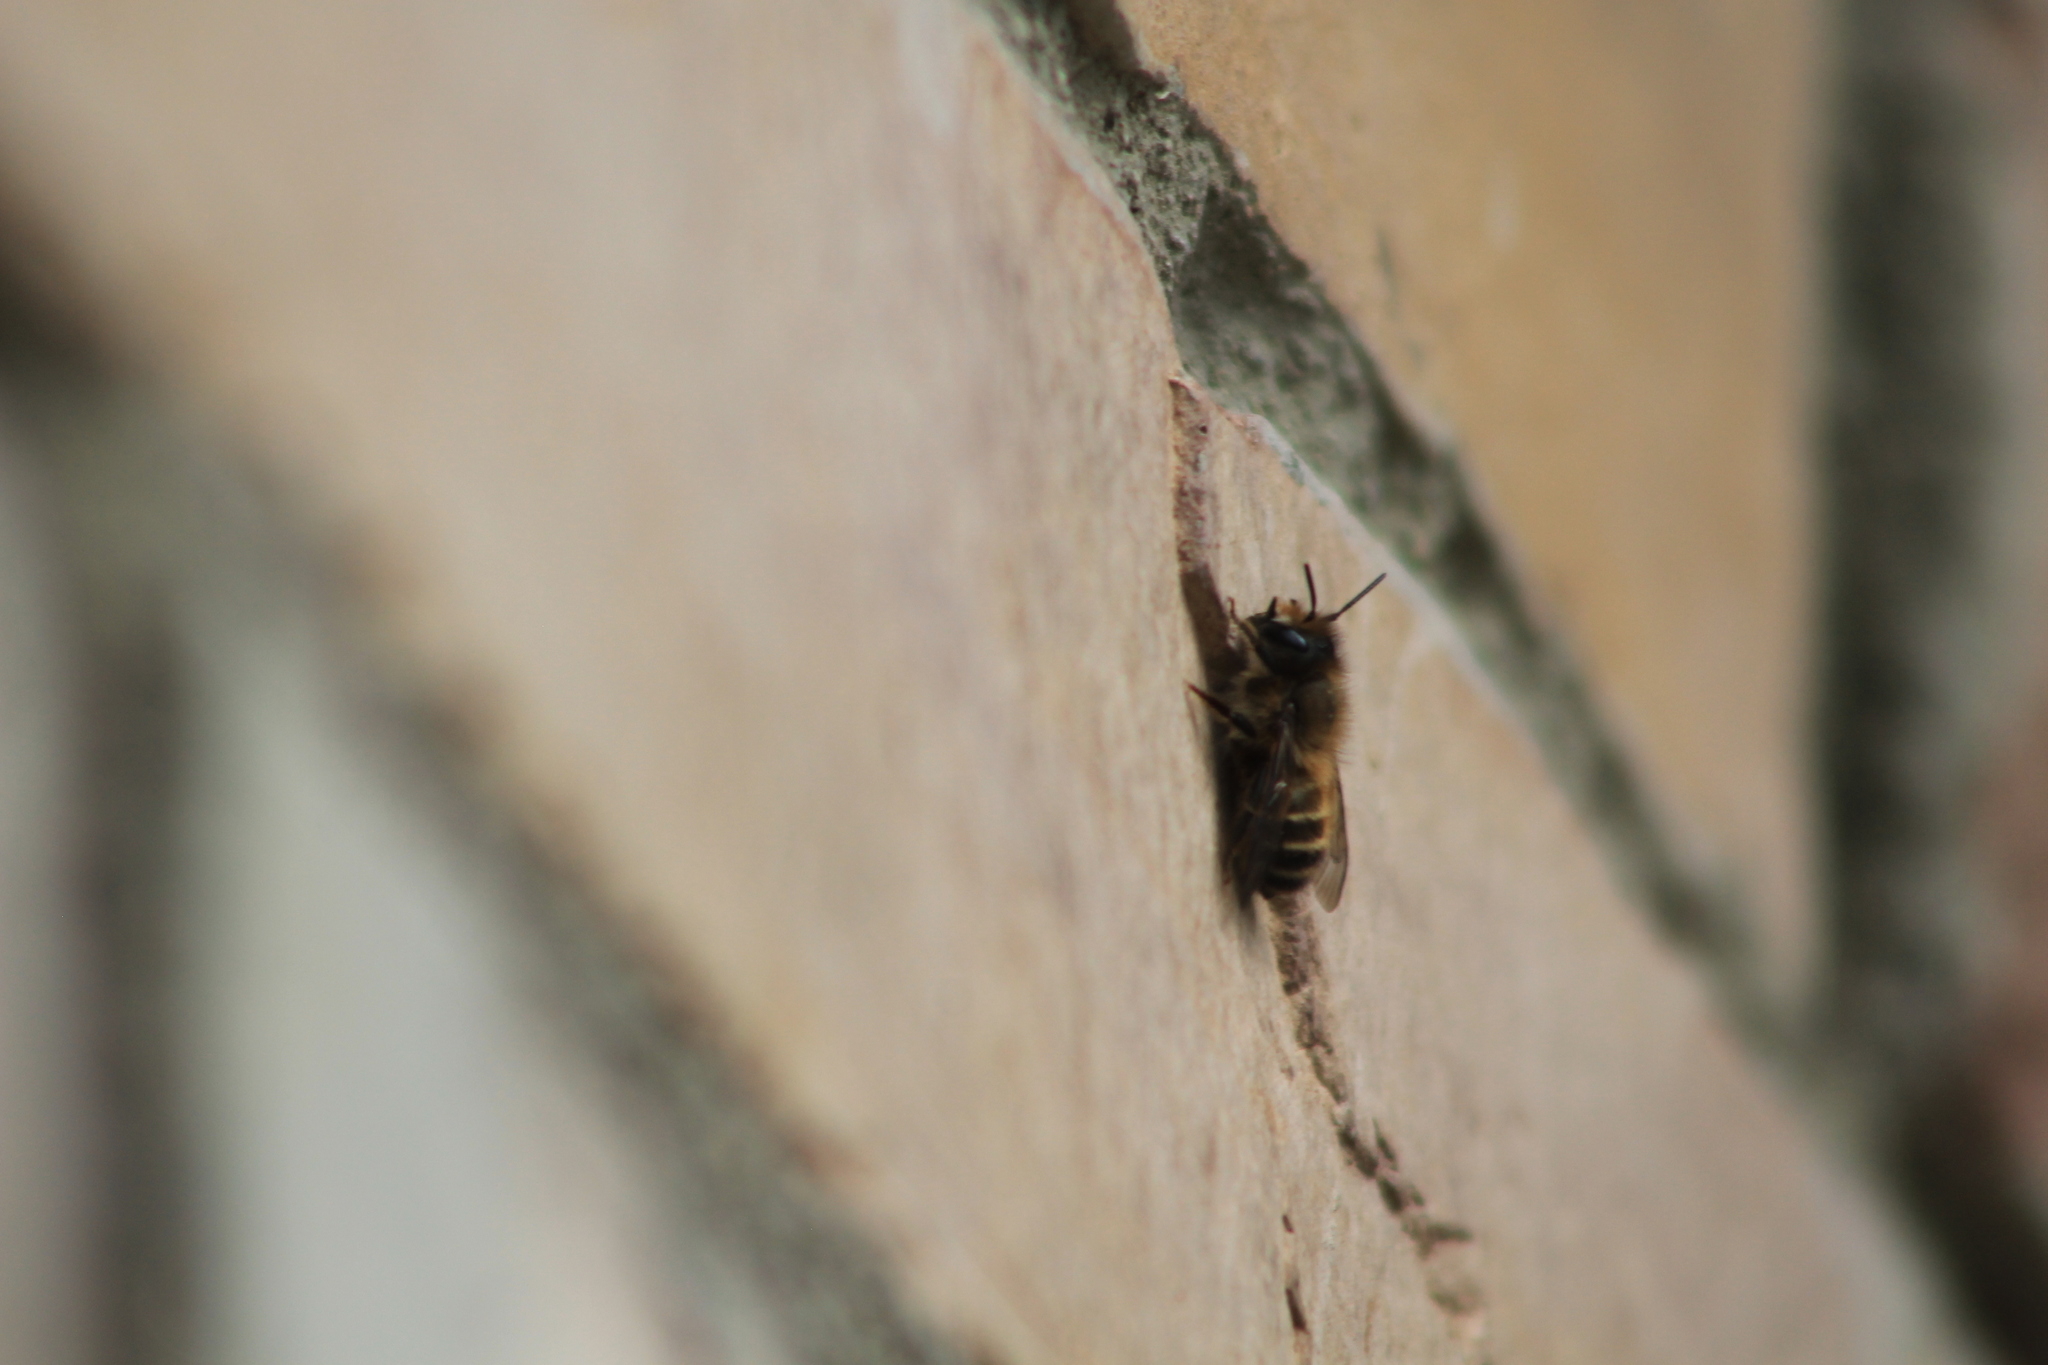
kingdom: Animalia
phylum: Arthropoda
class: Insecta
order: Hymenoptera
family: Megachilidae
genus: Osmia
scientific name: Osmia cornifrons
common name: Horn-faced bee
